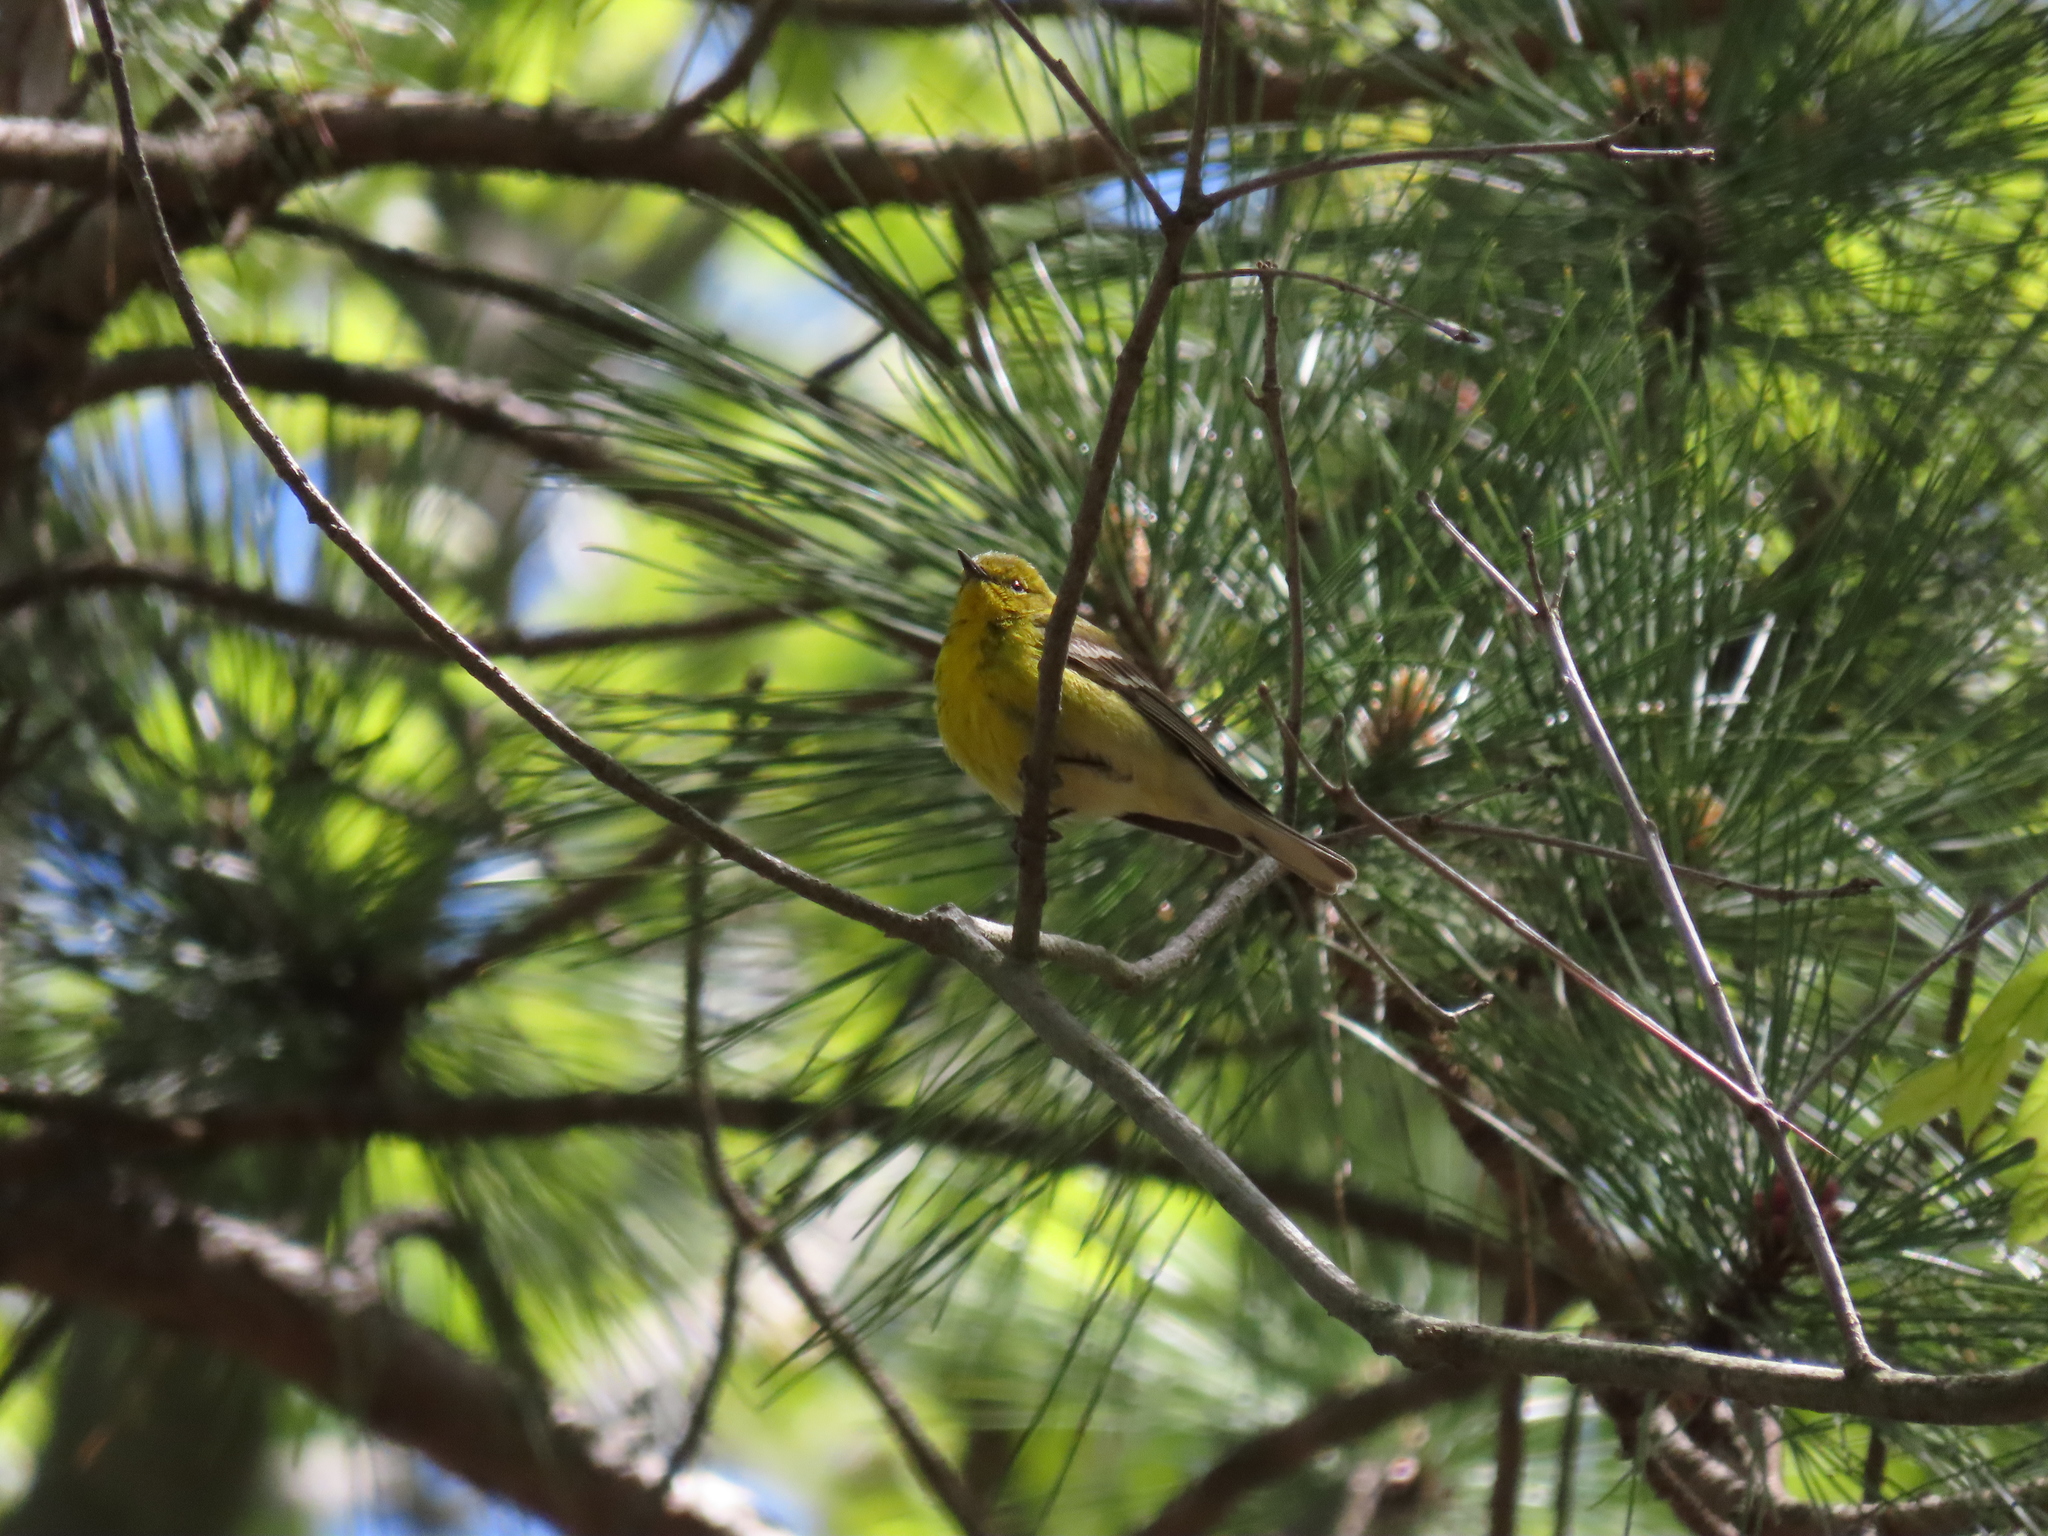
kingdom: Animalia
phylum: Chordata
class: Aves
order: Passeriformes
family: Parulidae
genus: Setophaga
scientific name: Setophaga pinus
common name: Pine warbler
